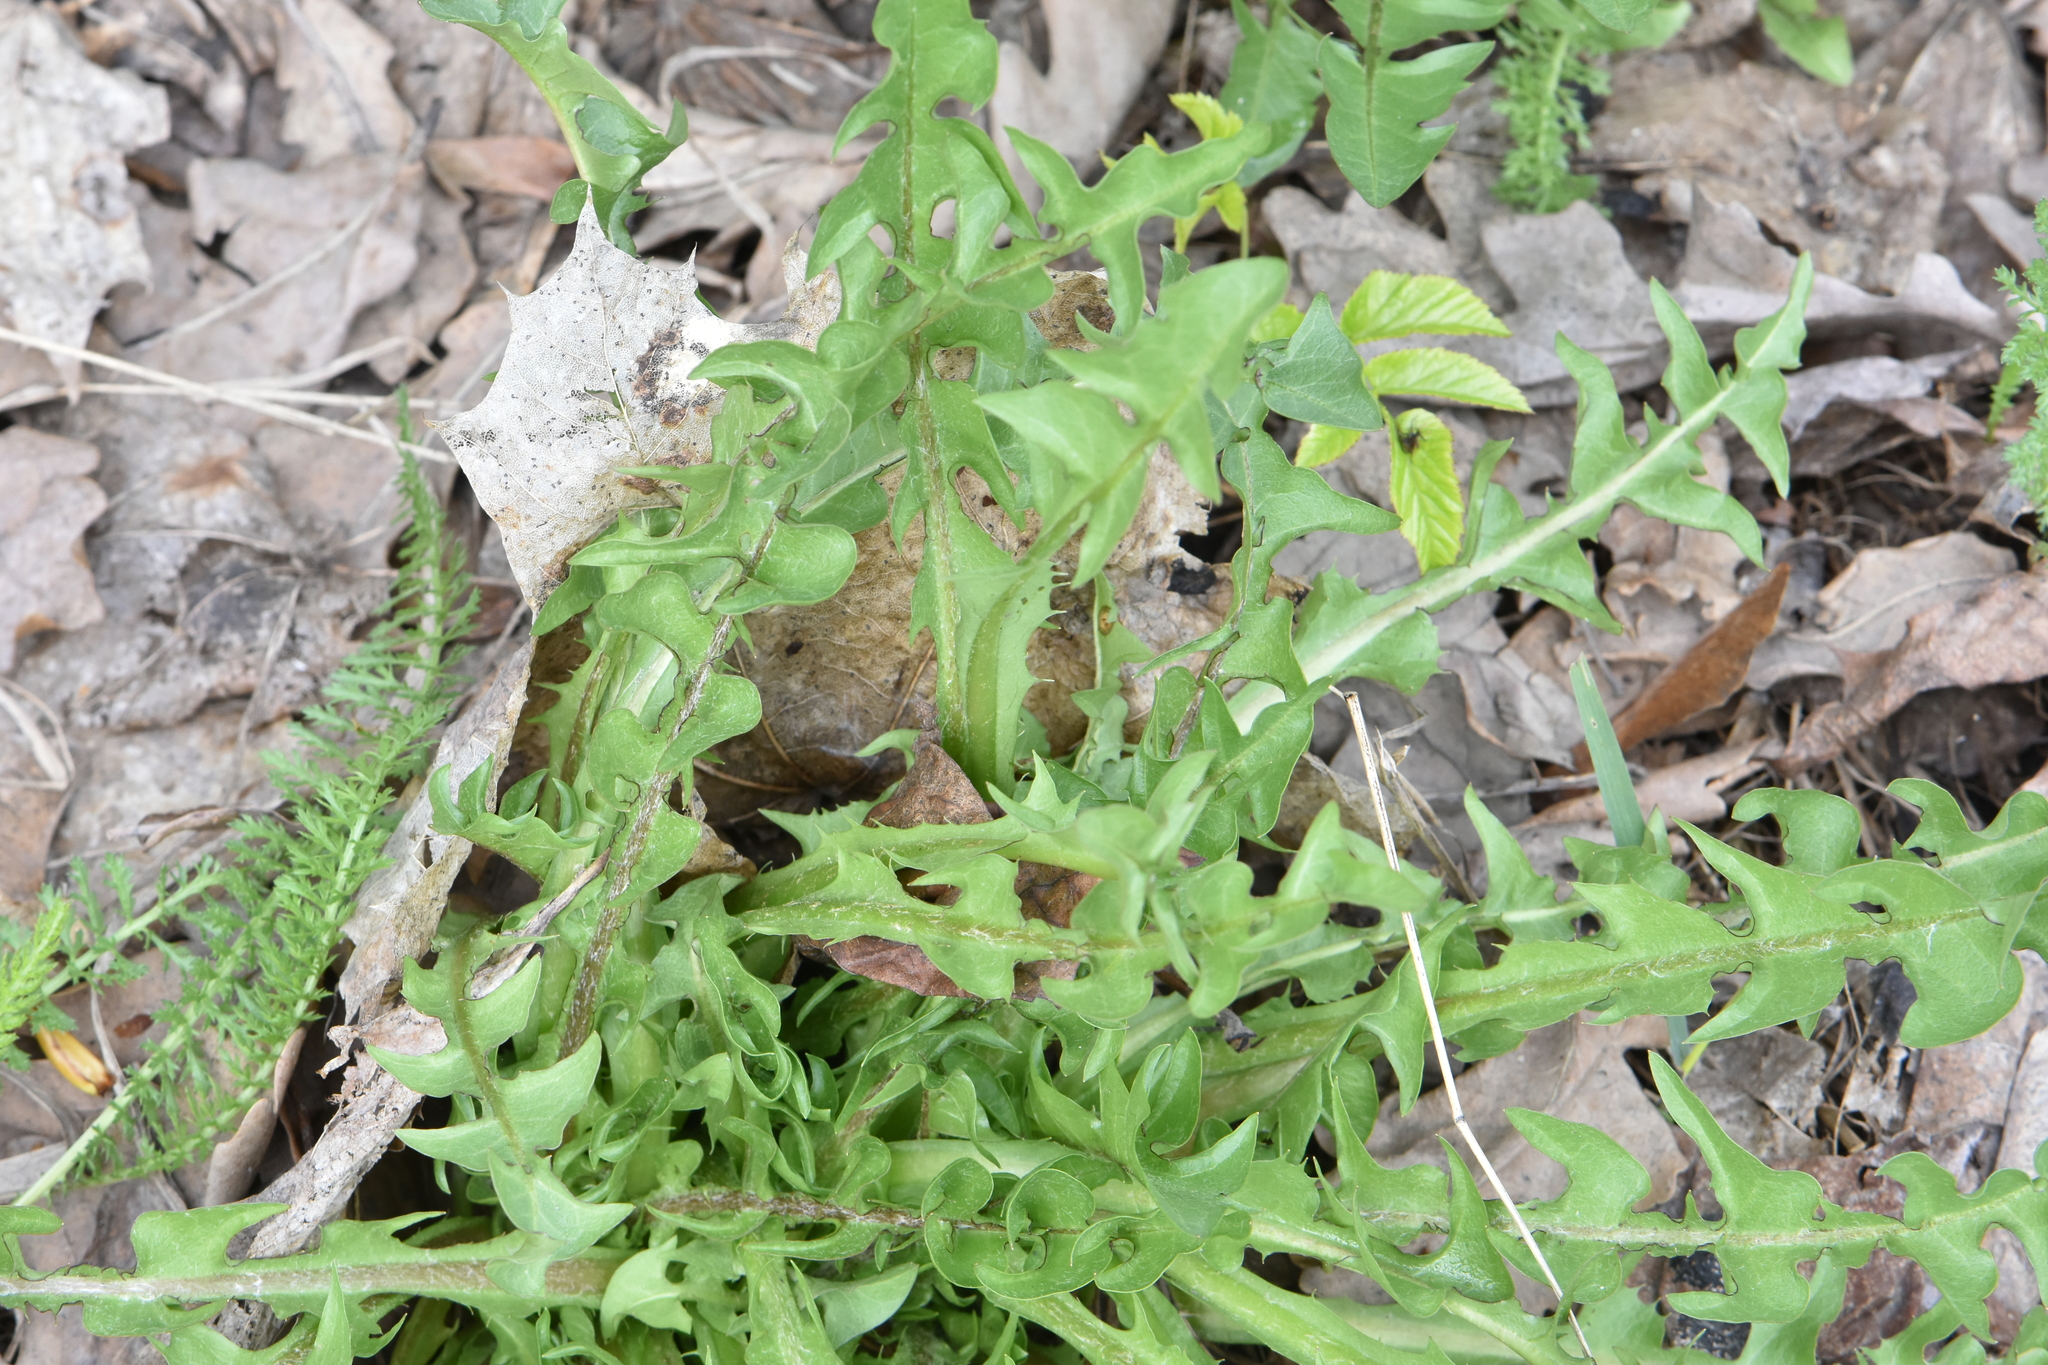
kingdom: Plantae
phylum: Tracheophyta
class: Magnoliopsida
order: Asterales
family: Asteraceae
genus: Taraxacum
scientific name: Taraxacum officinale
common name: Common dandelion
